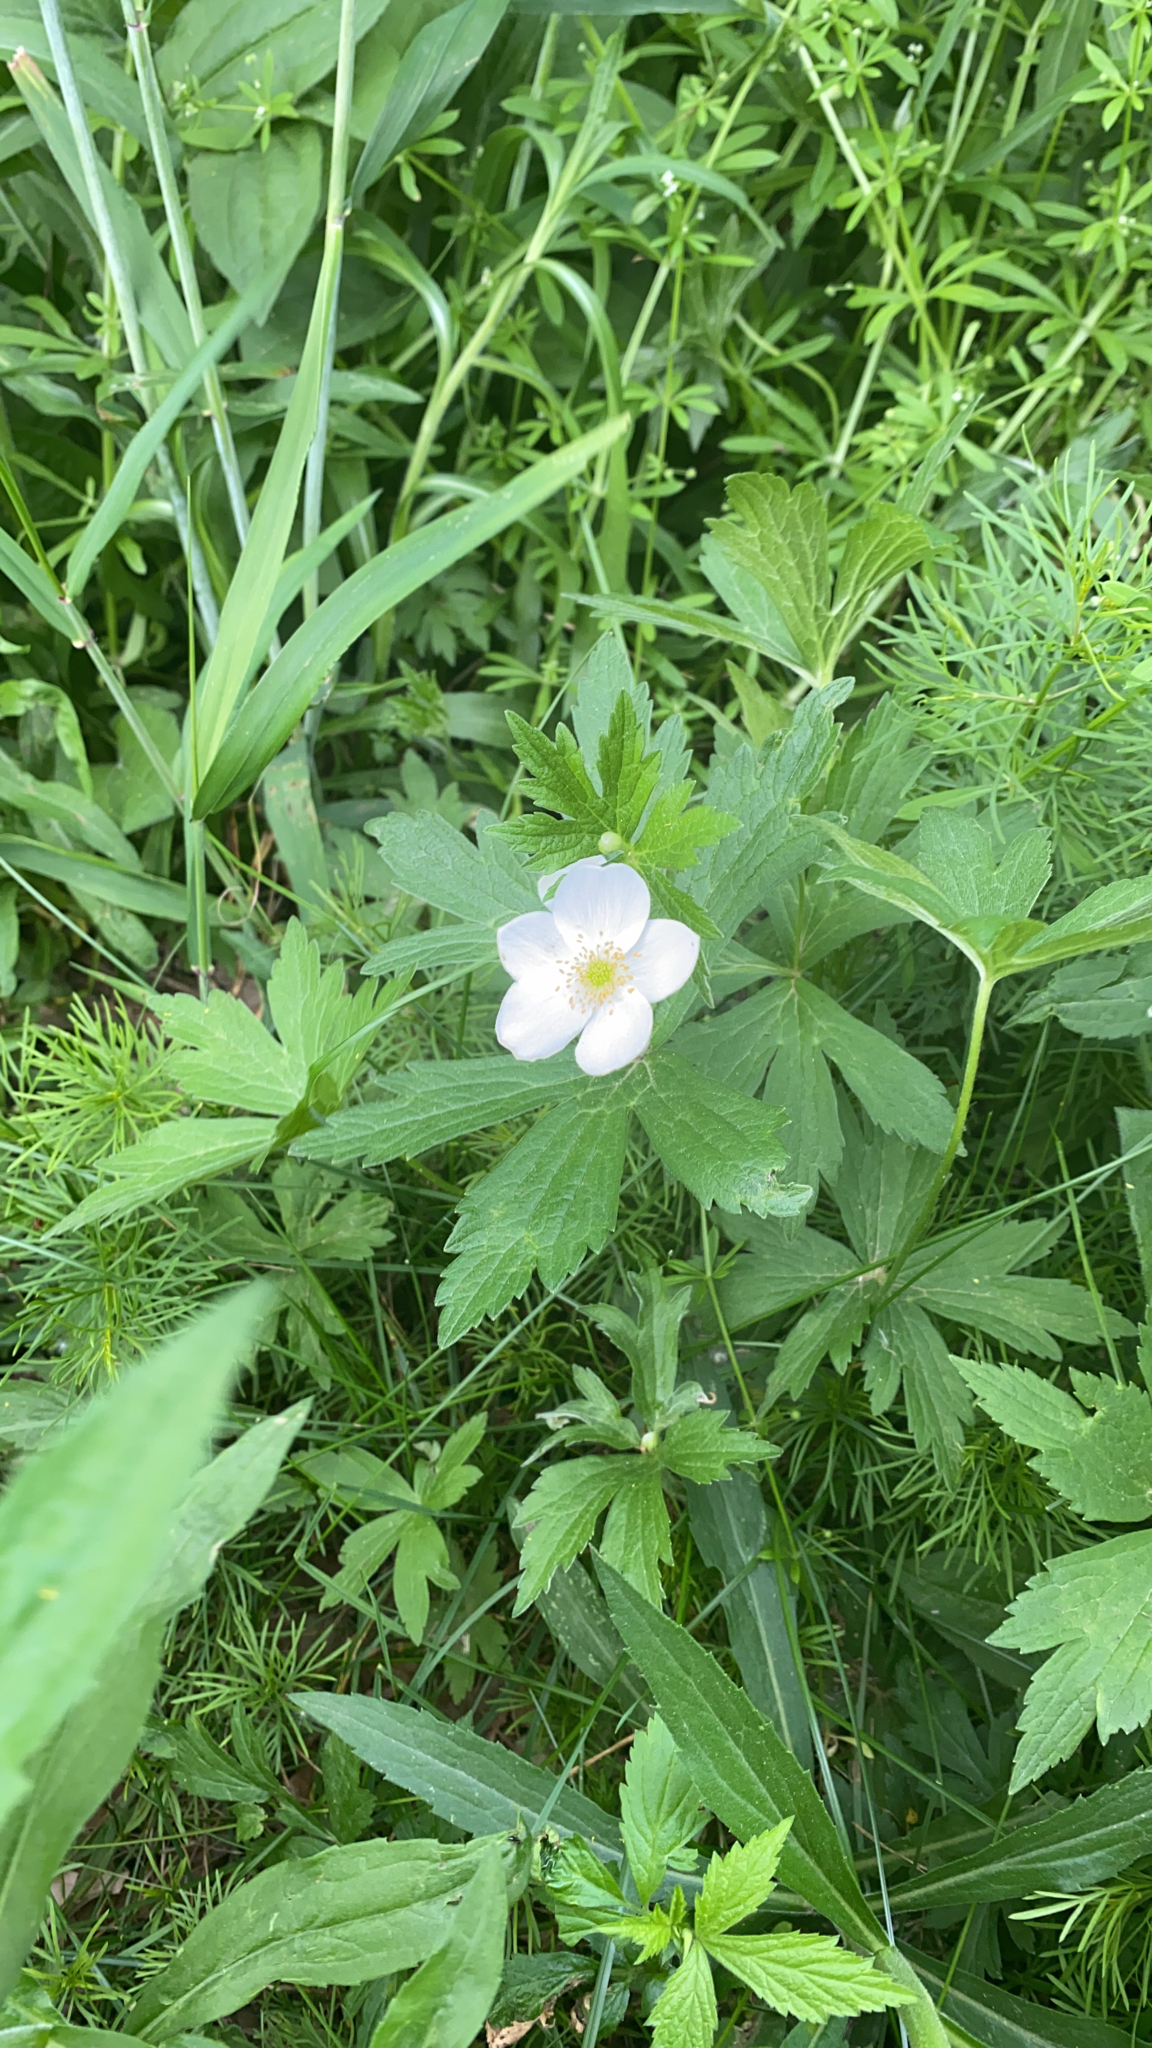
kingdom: Plantae
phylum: Tracheophyta
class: Magnoliopsida
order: Ranunculales
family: Ranunculaceae
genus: Anemonastrum
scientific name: Anemonastrum canadense
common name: Canada anemone
